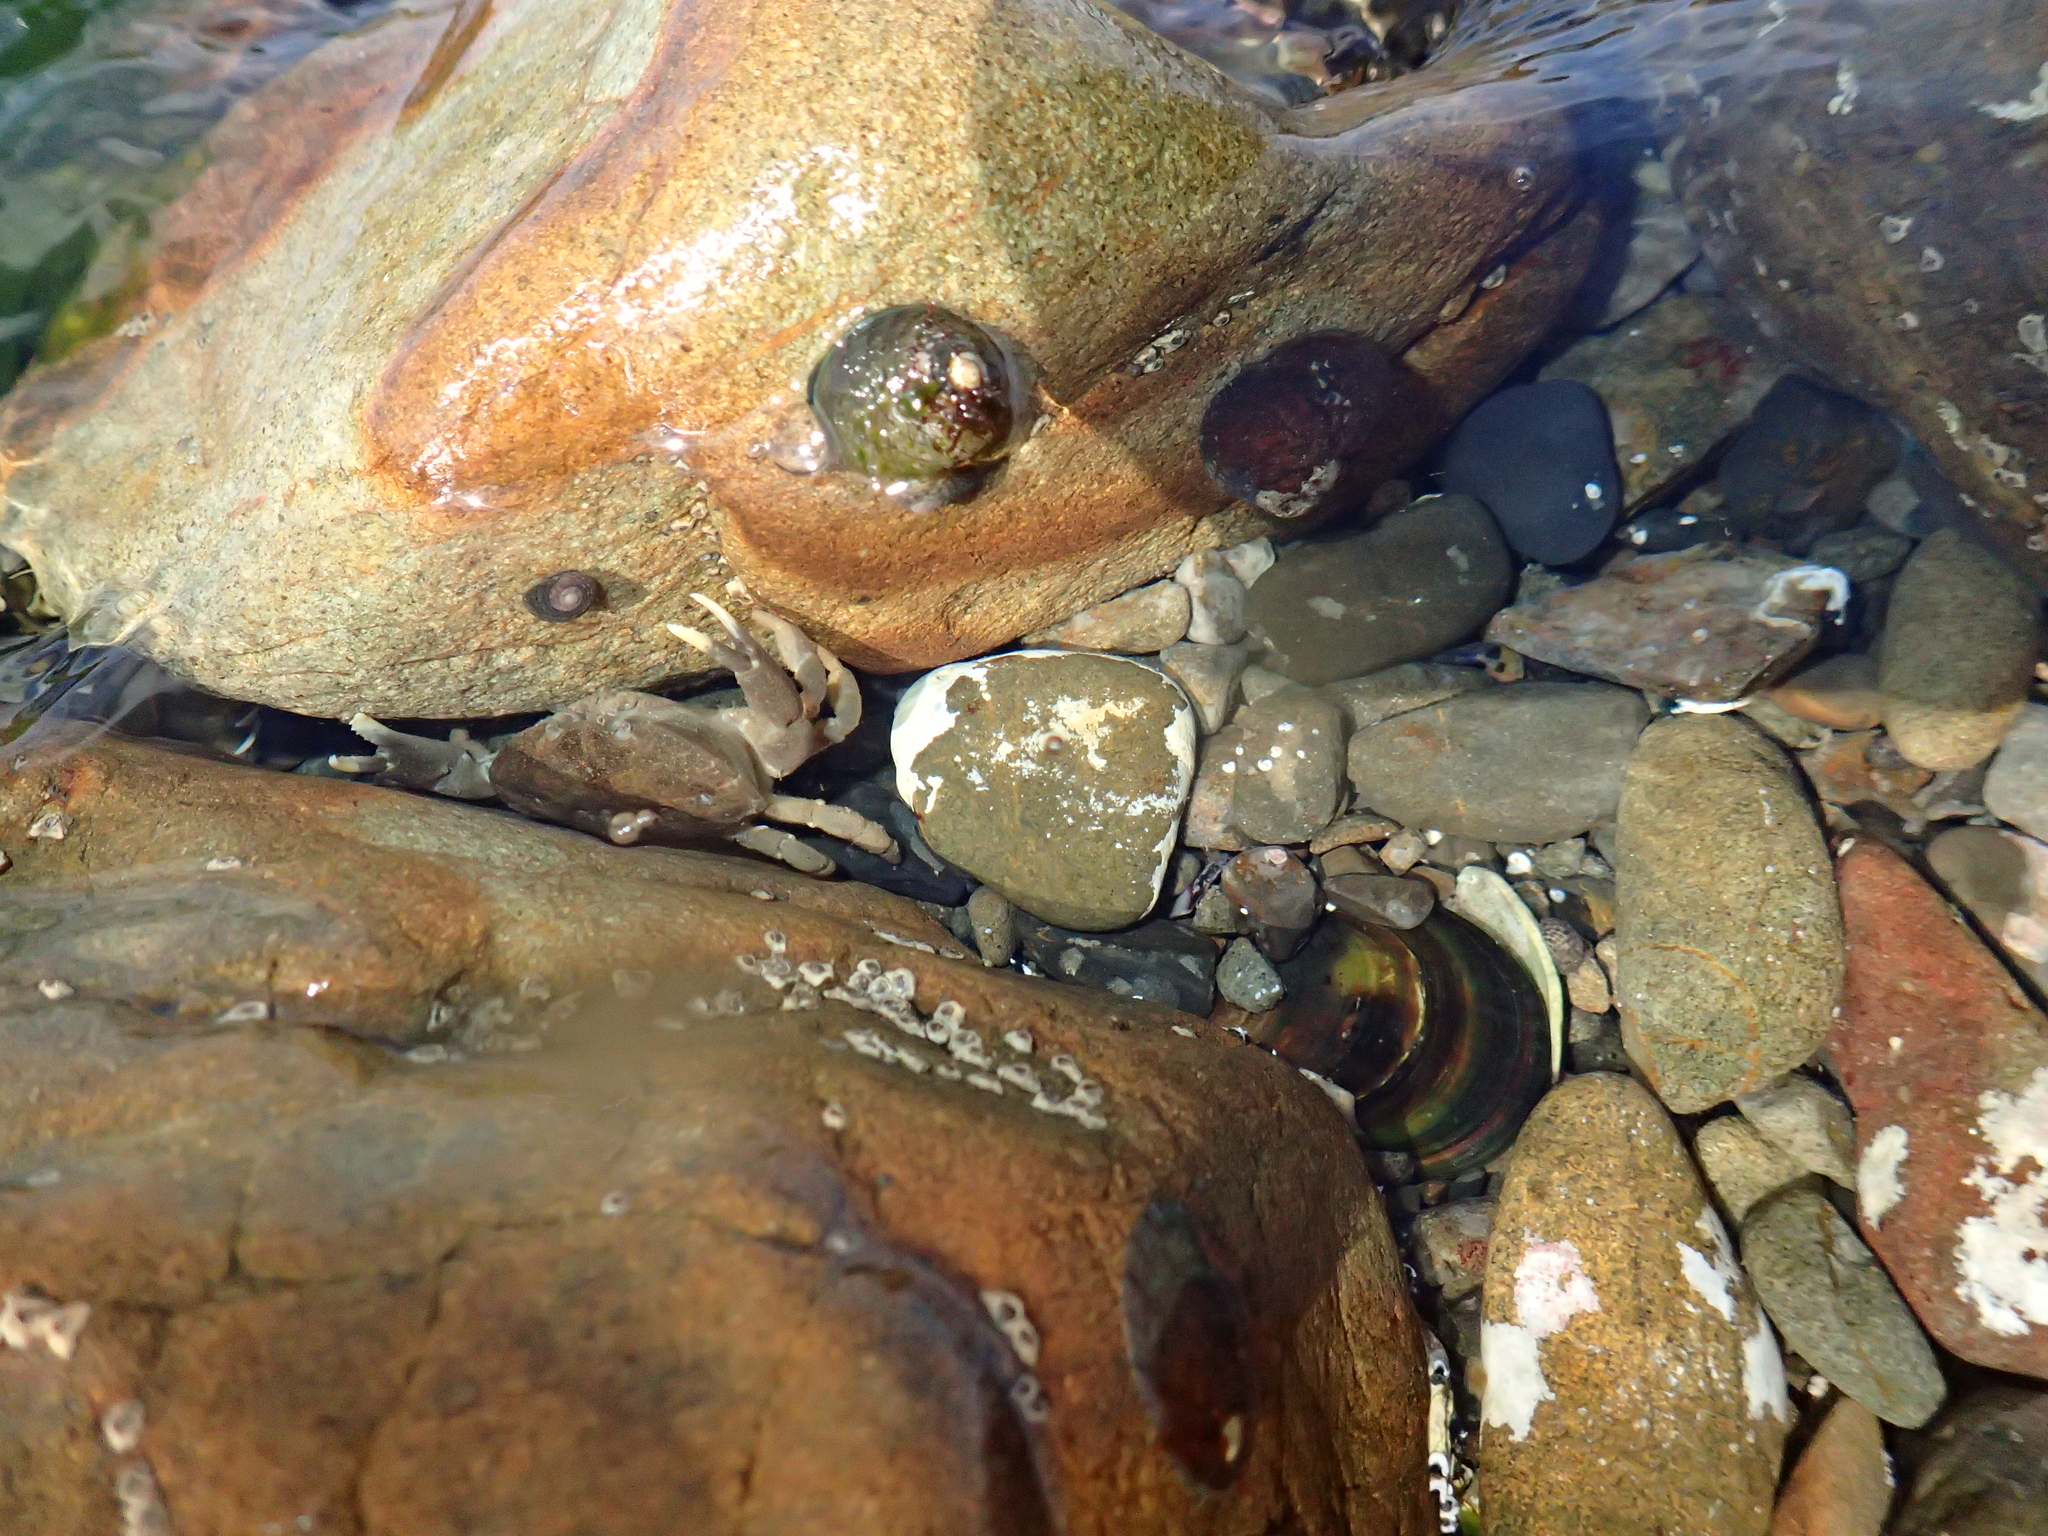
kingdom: Animalia
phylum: Arthropoda
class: Malacostraca
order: Decapoda
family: Heteroziidae
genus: Heterozius
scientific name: Heterozius rotundifrons
